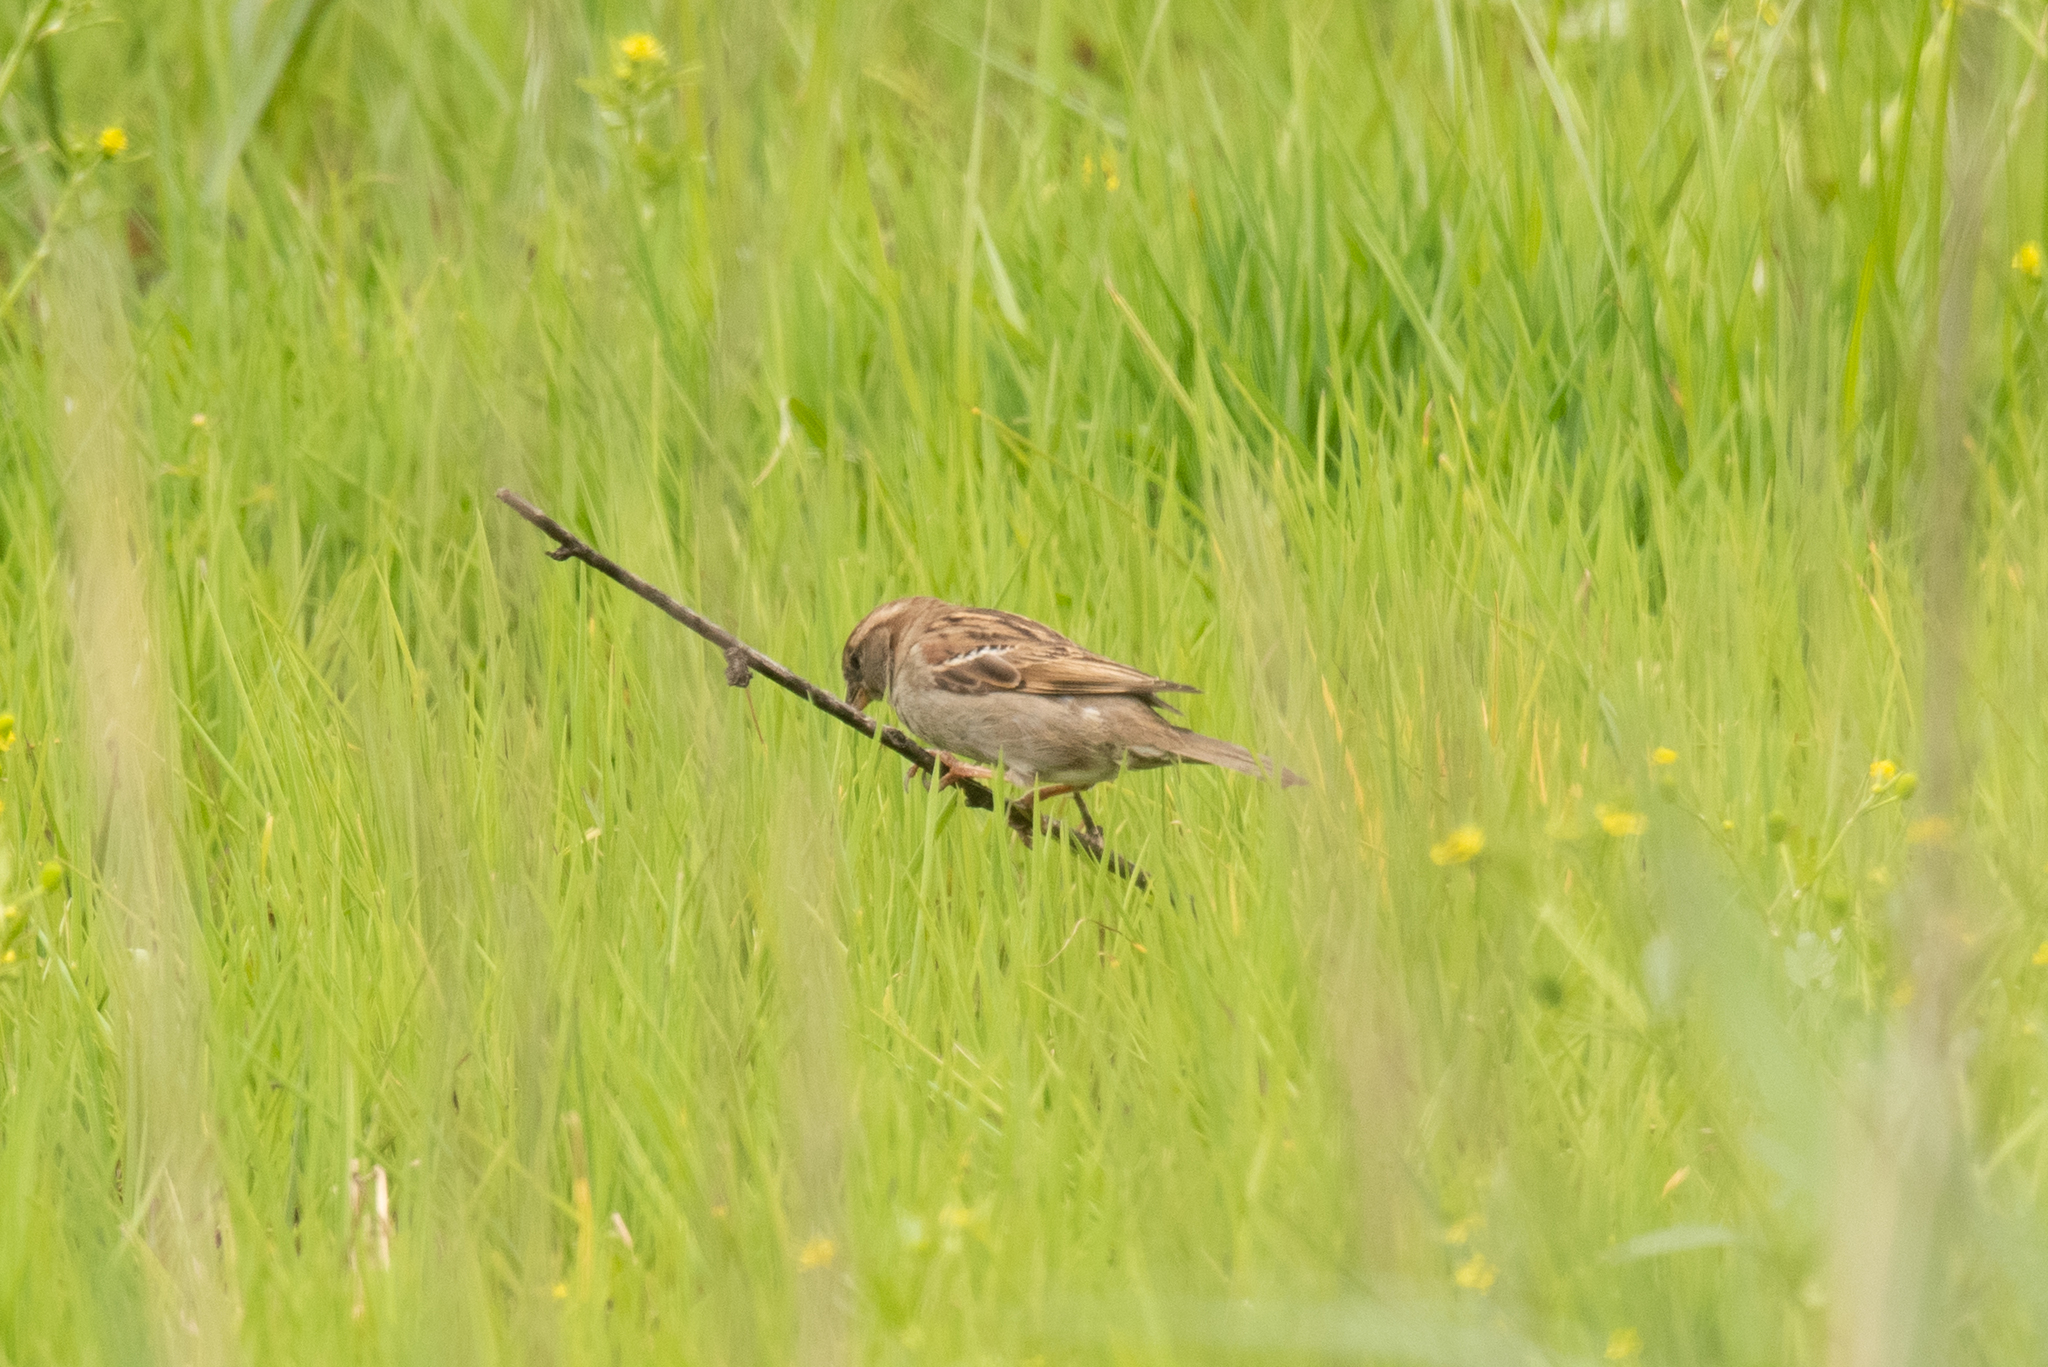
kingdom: Animalia
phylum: Chordata
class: Aves
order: Passeriformes
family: Passeridae
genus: Passer
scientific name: Passer domesticus
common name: House sparrow
